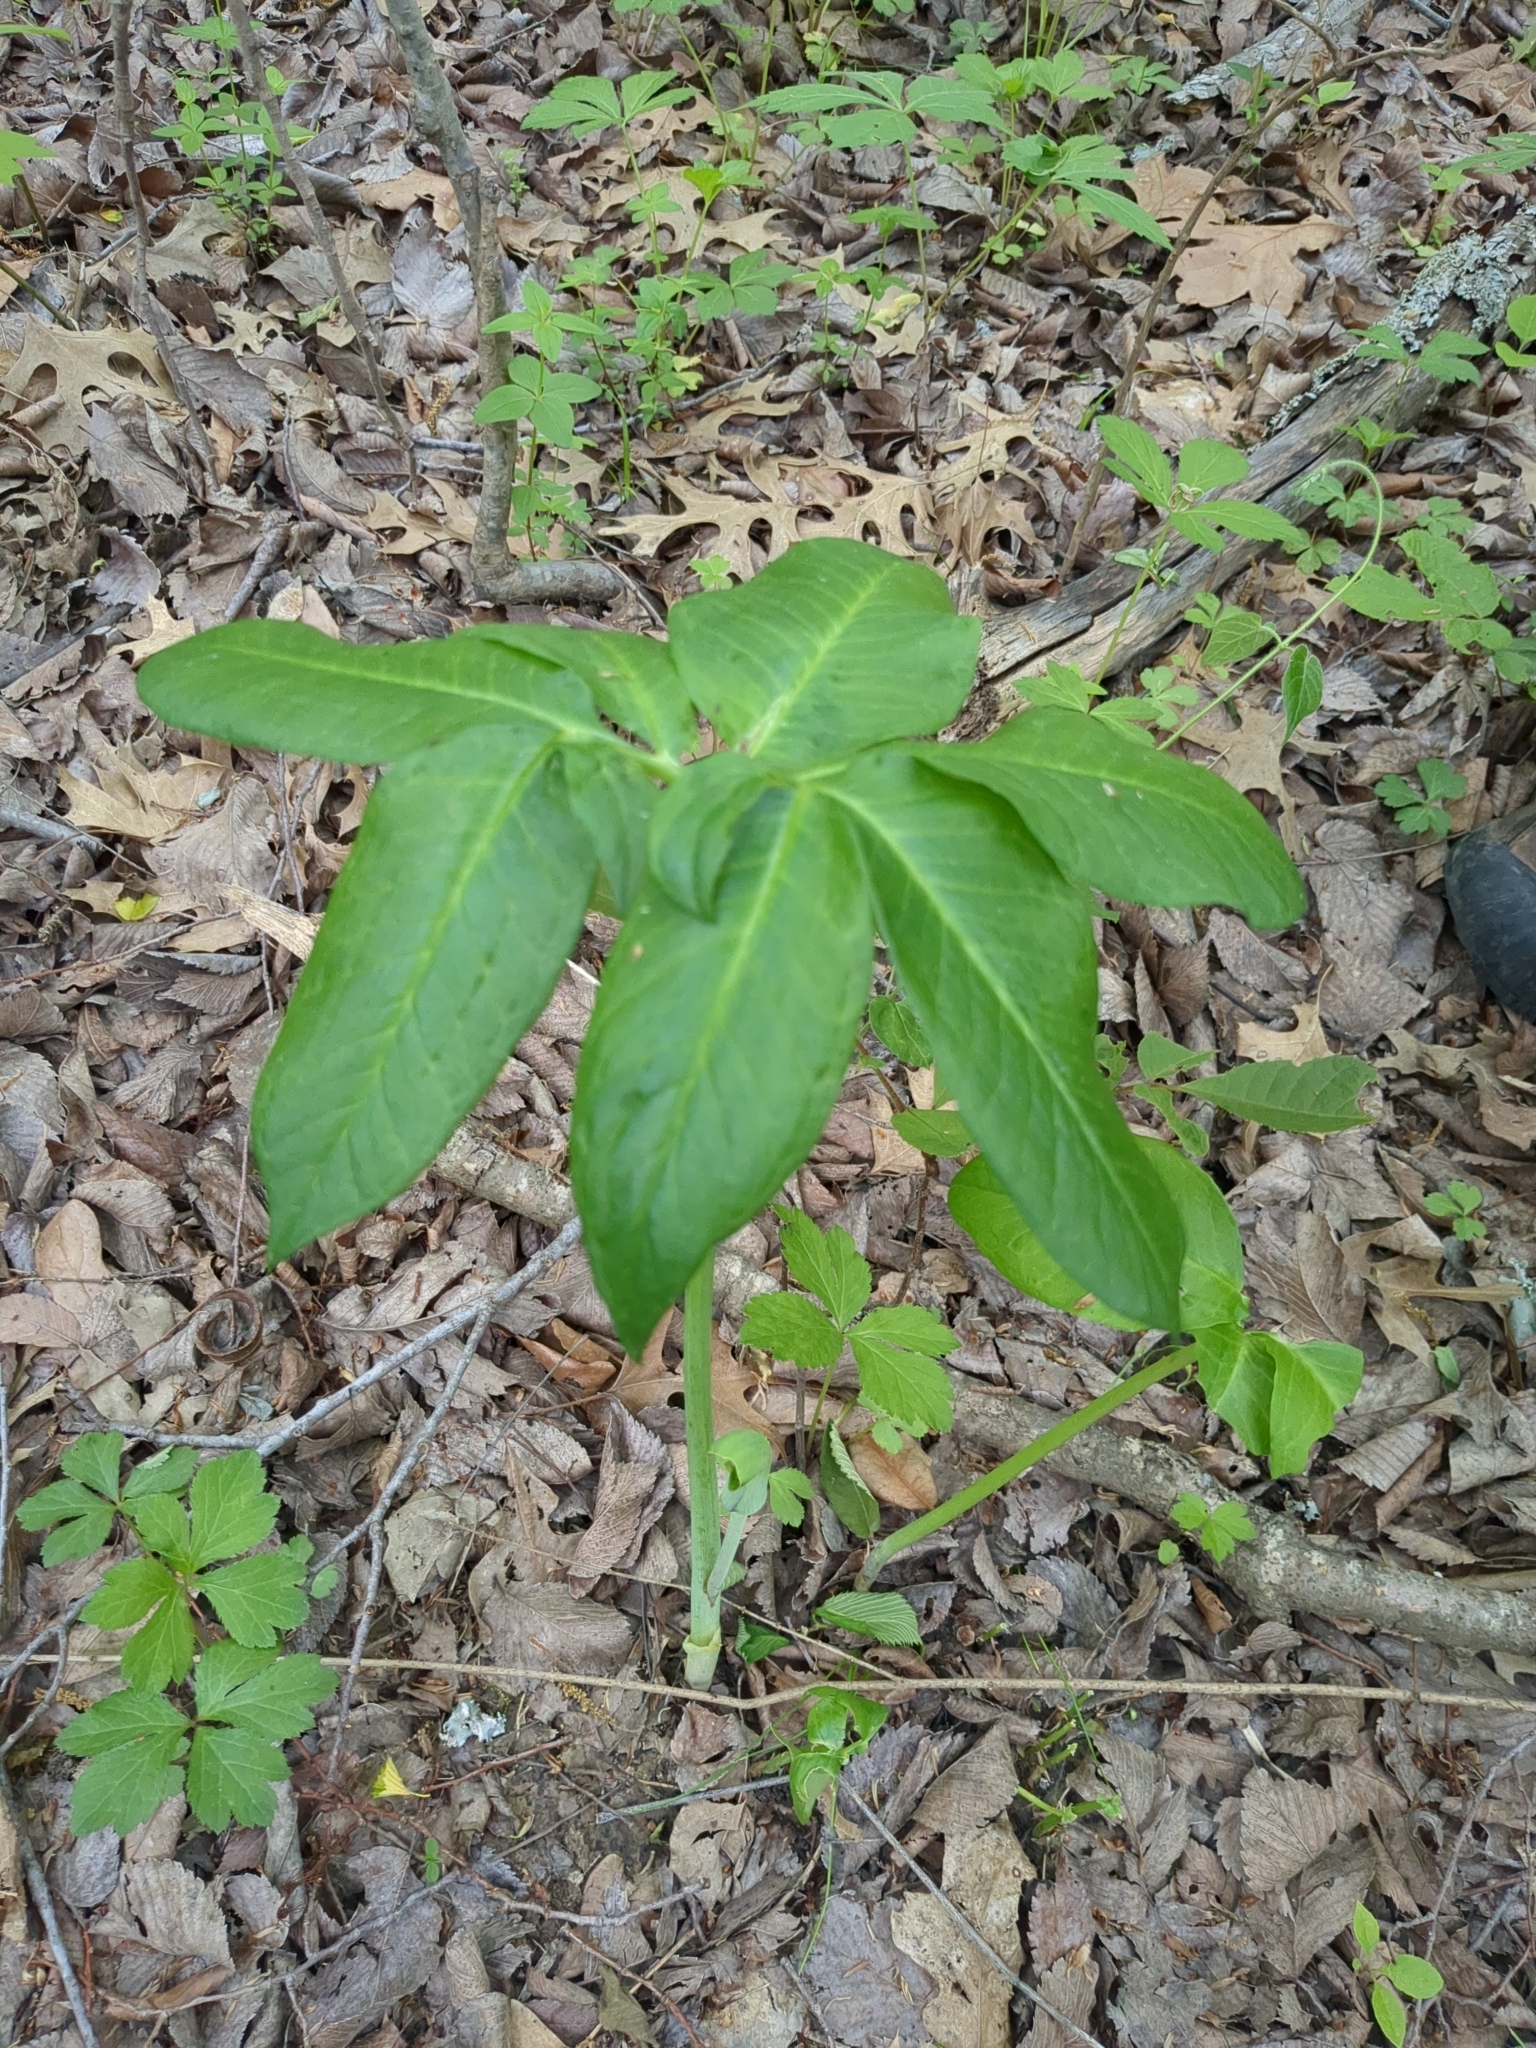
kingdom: Plantae
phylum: Tracheophyta
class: Liliopsida
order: Alismatales
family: Araceae
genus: Arisaema
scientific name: Arisaema dracontium
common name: Dragon-arum
